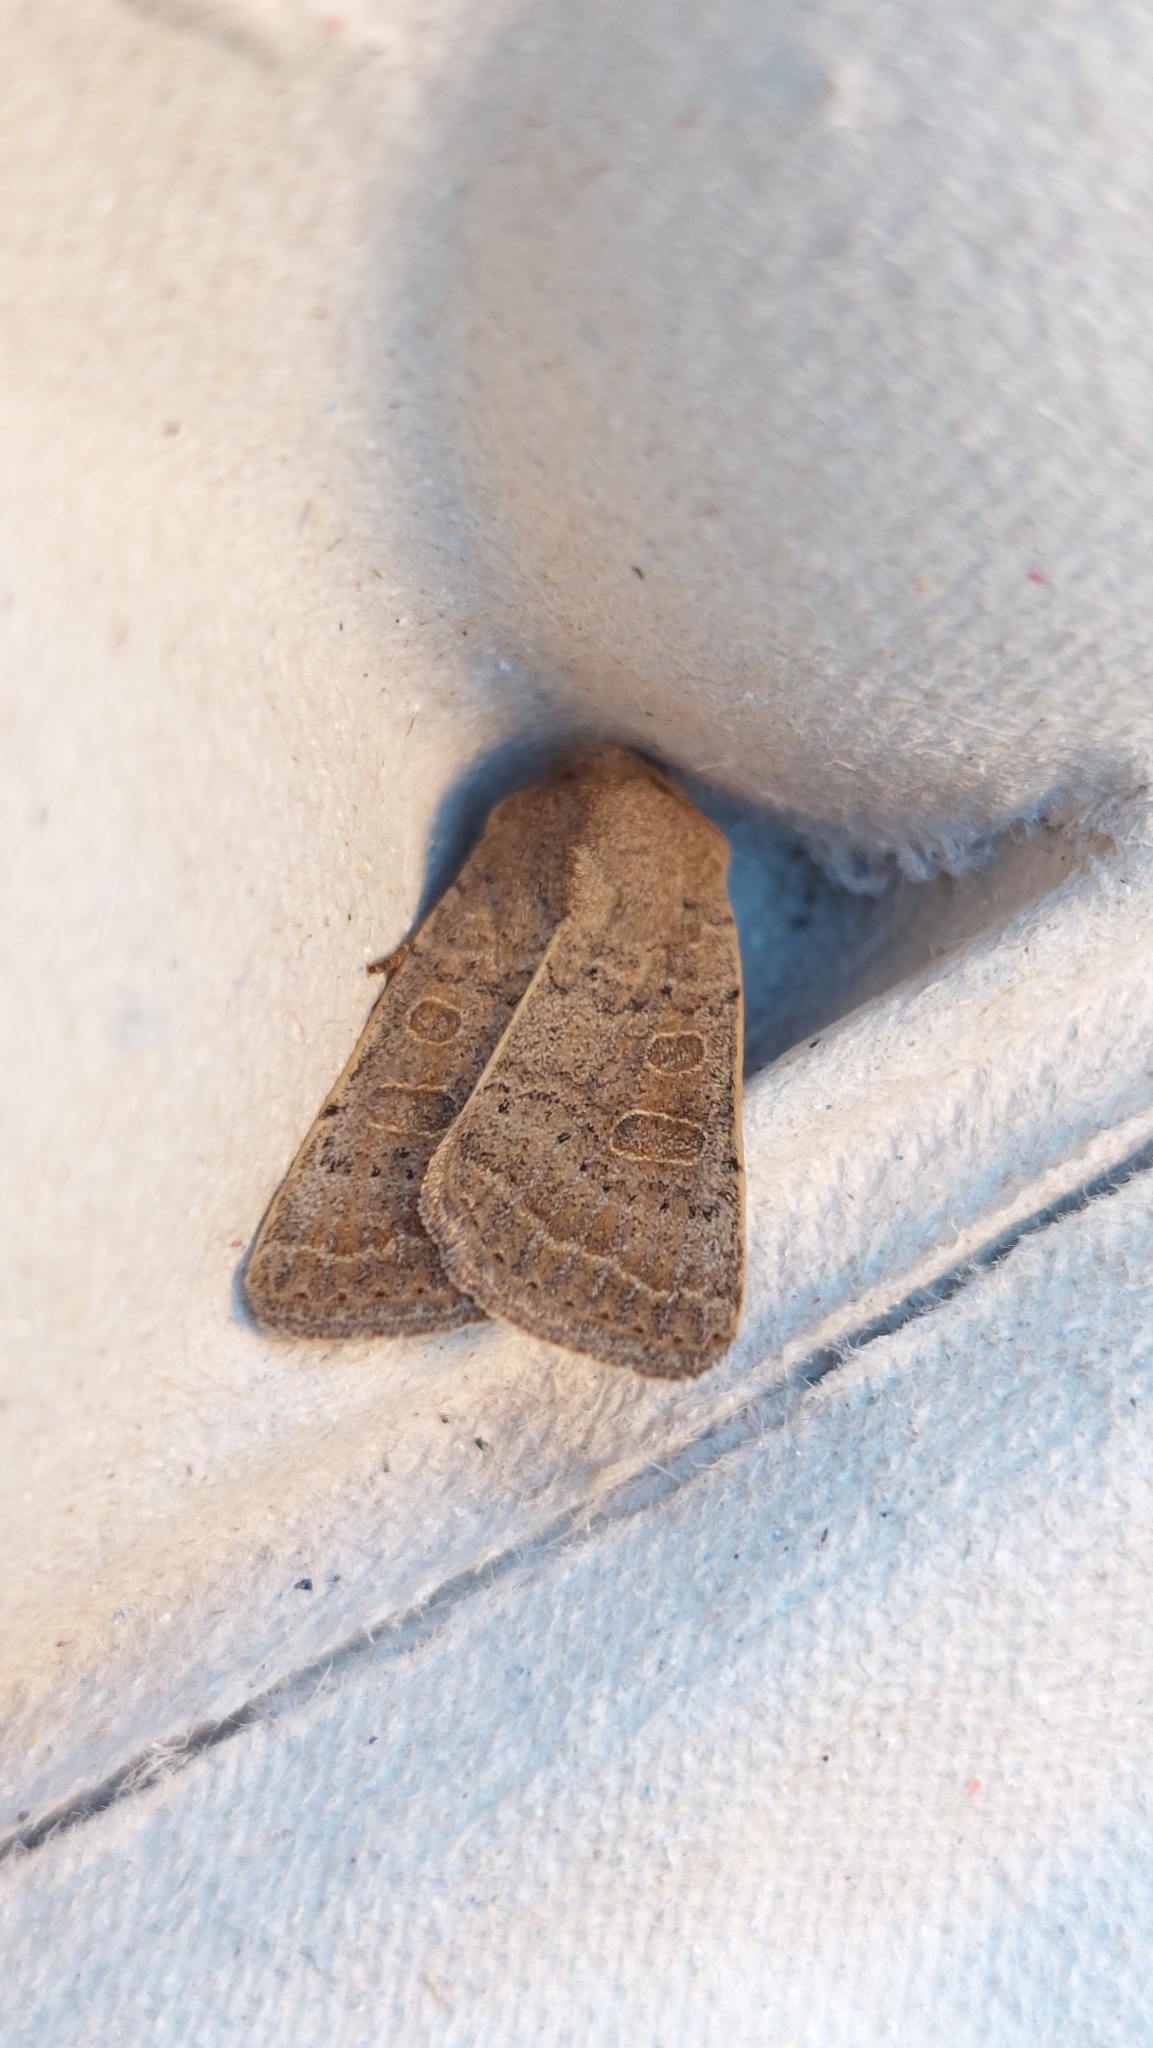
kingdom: Animalia
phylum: Arthropoda
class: Insecta
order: Lepidoptera
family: Noctuidae
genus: Hoplodrina
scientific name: Hoplodrina ambigua
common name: Vine's rustic
